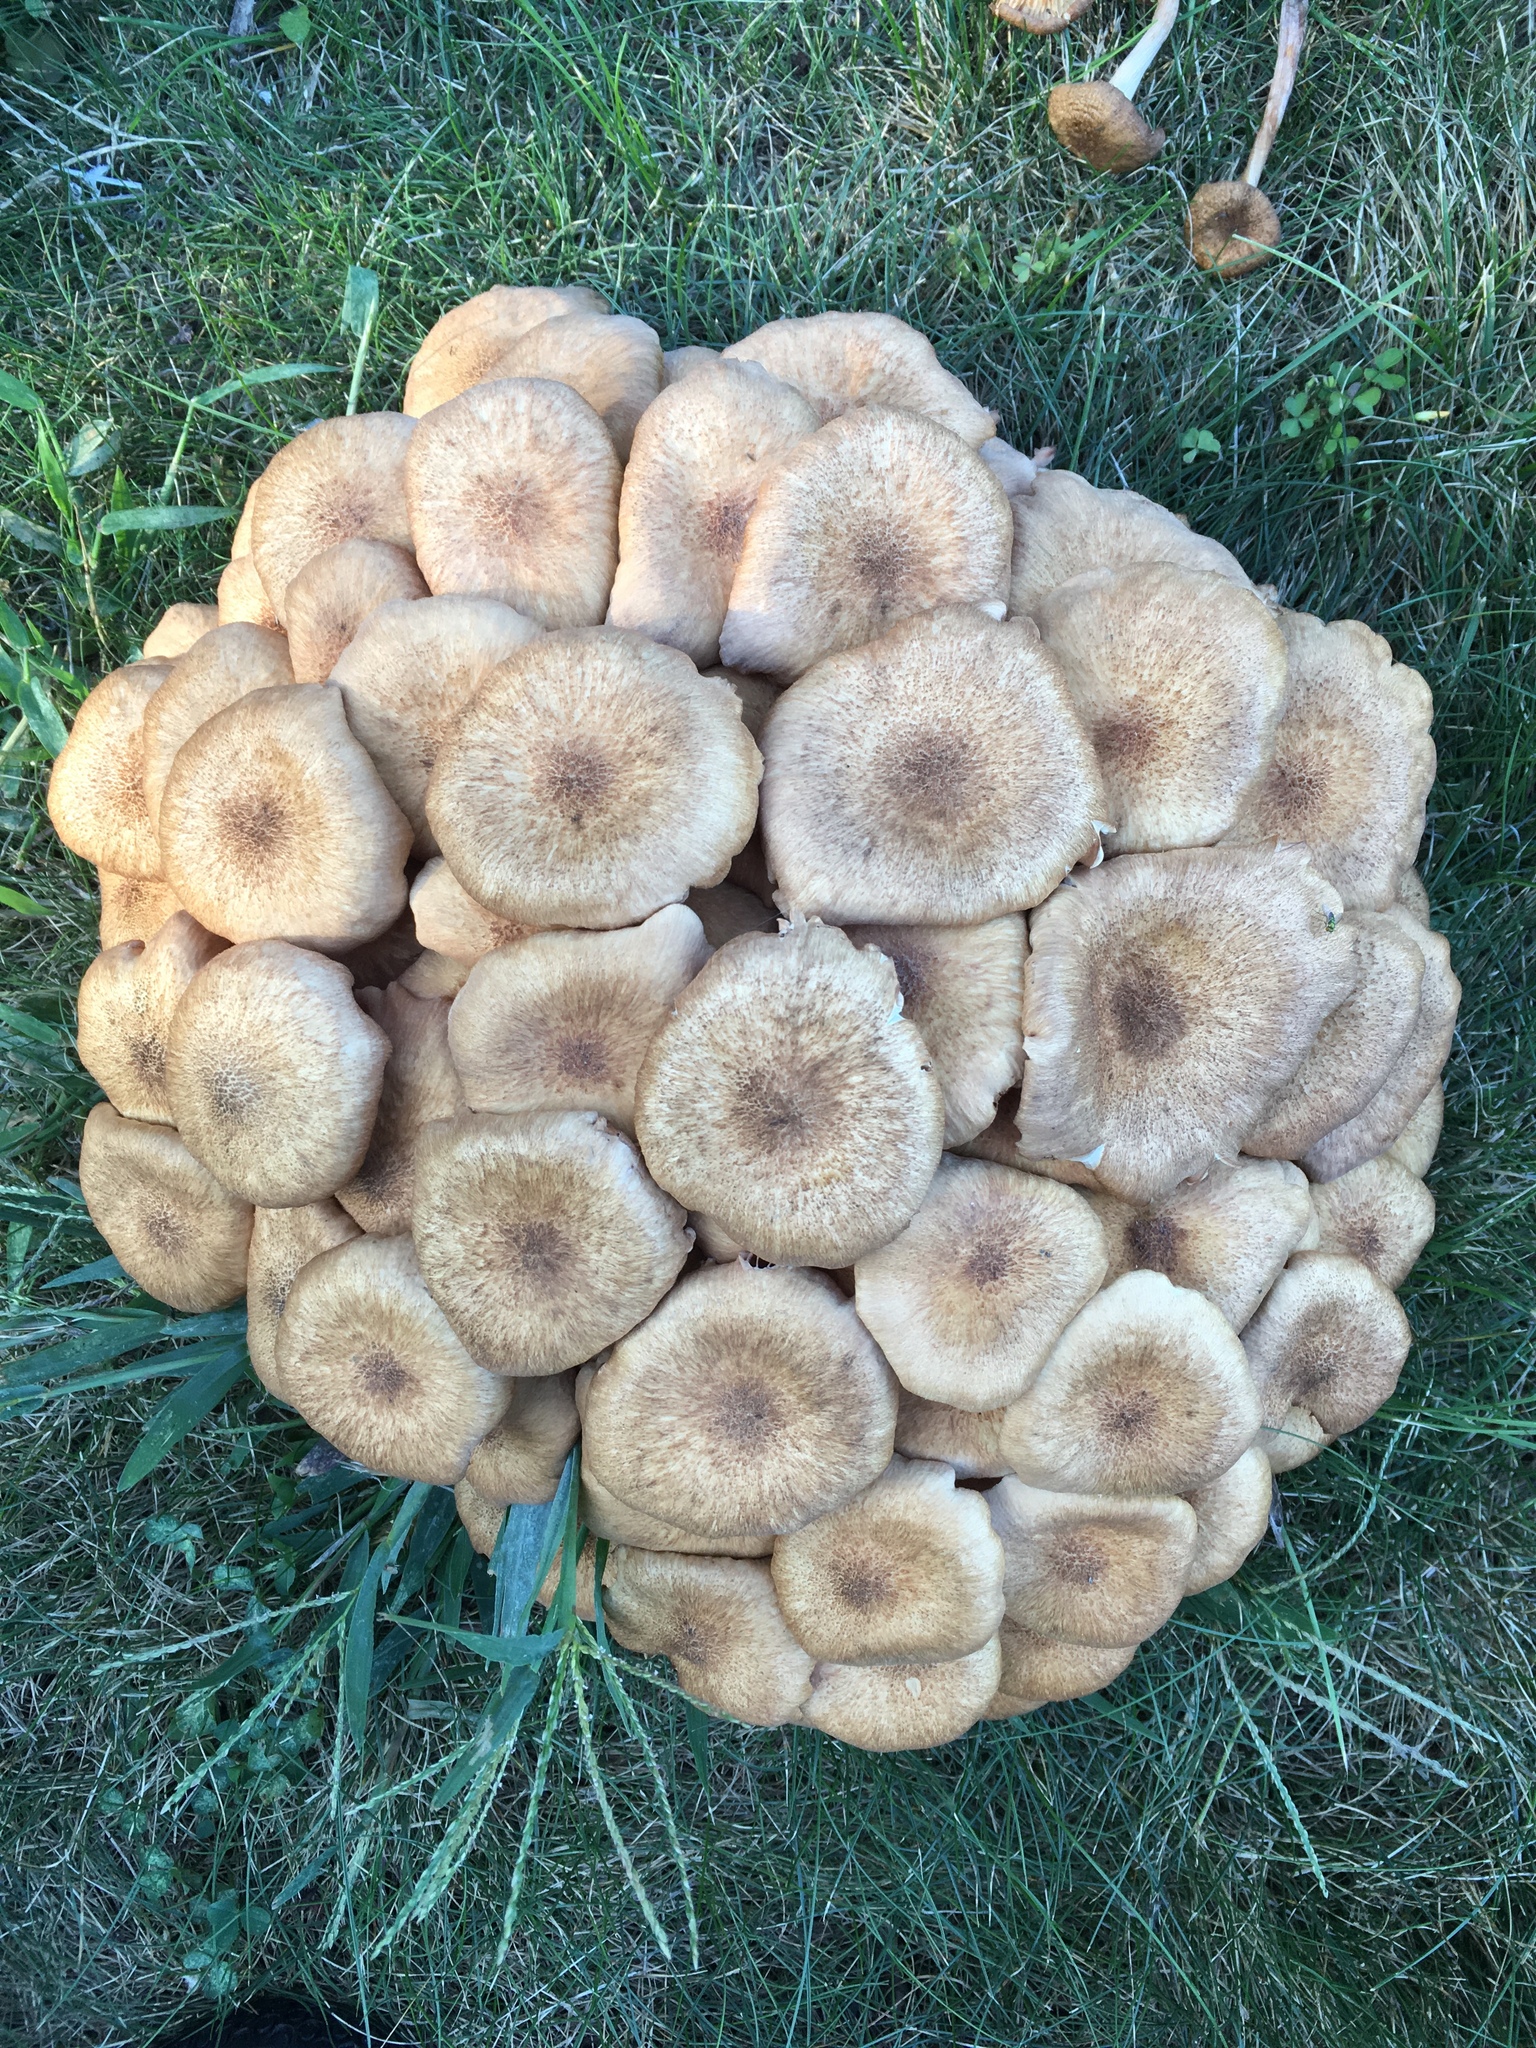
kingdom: Fungi
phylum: Basidiomycota
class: Agaricomycetes
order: Agaricales
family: Physalacriaceae
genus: Desarmillaria
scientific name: Desarmillaria caespitosa
